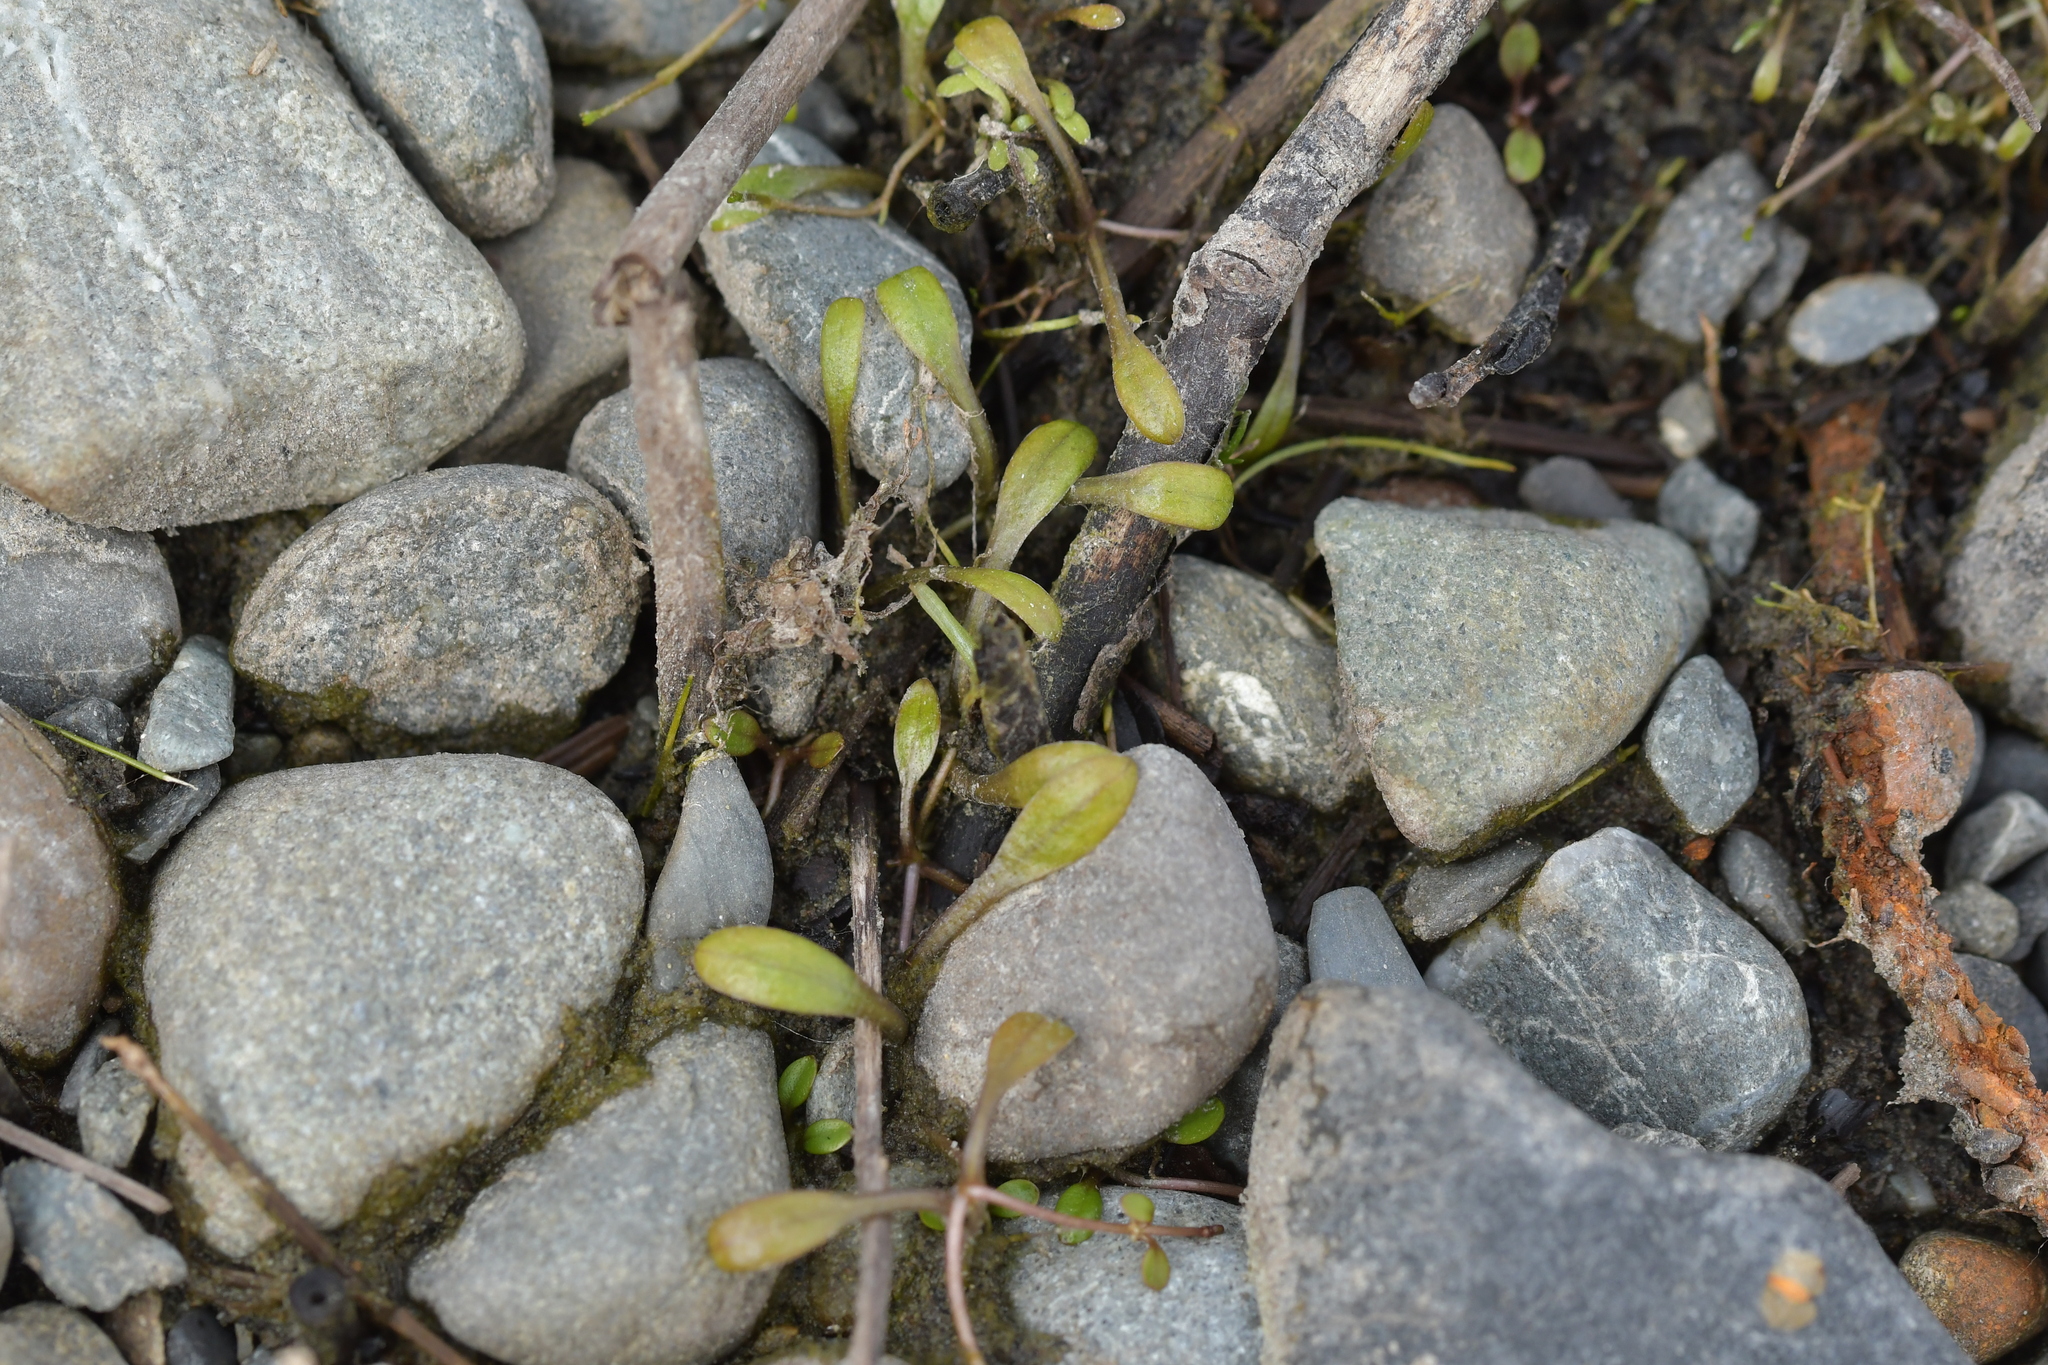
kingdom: Plantae
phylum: Tracheophyta
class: Magnoliopsida
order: Lamiales
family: Phrymaceae
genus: Glossostigma
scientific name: Glossostigma elatinoides
